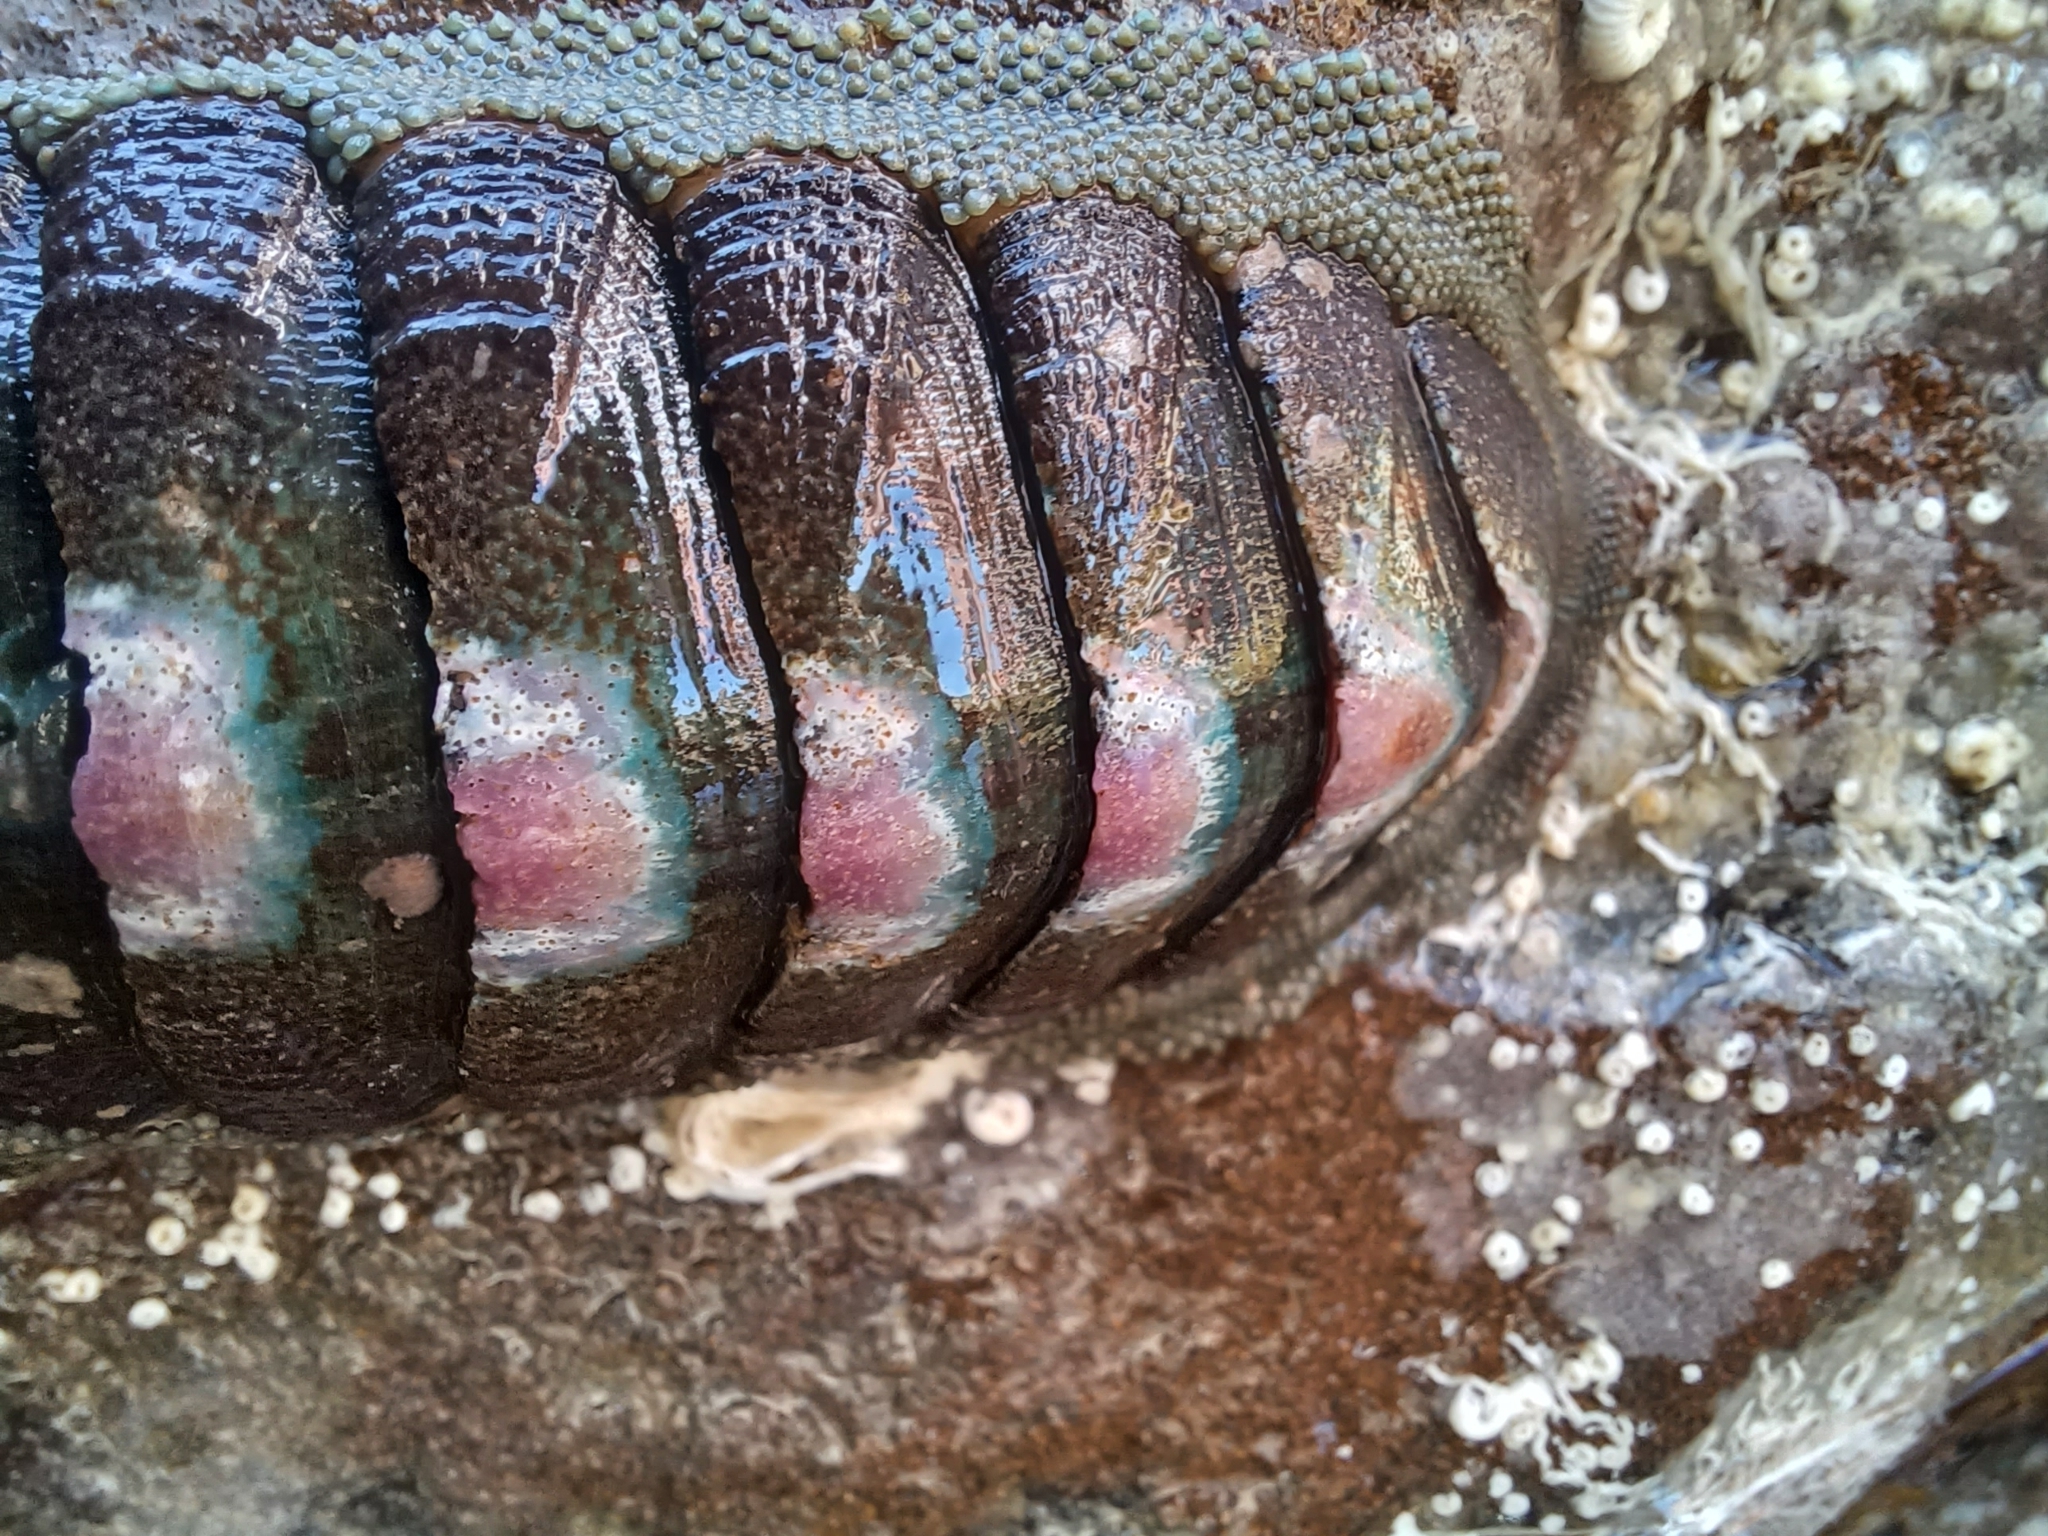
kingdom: Animalia
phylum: Mollusca
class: Polyplacophora
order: Chitonida
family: Ischnochitonidae
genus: Ischnochiton
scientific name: Ischnochiton australis
